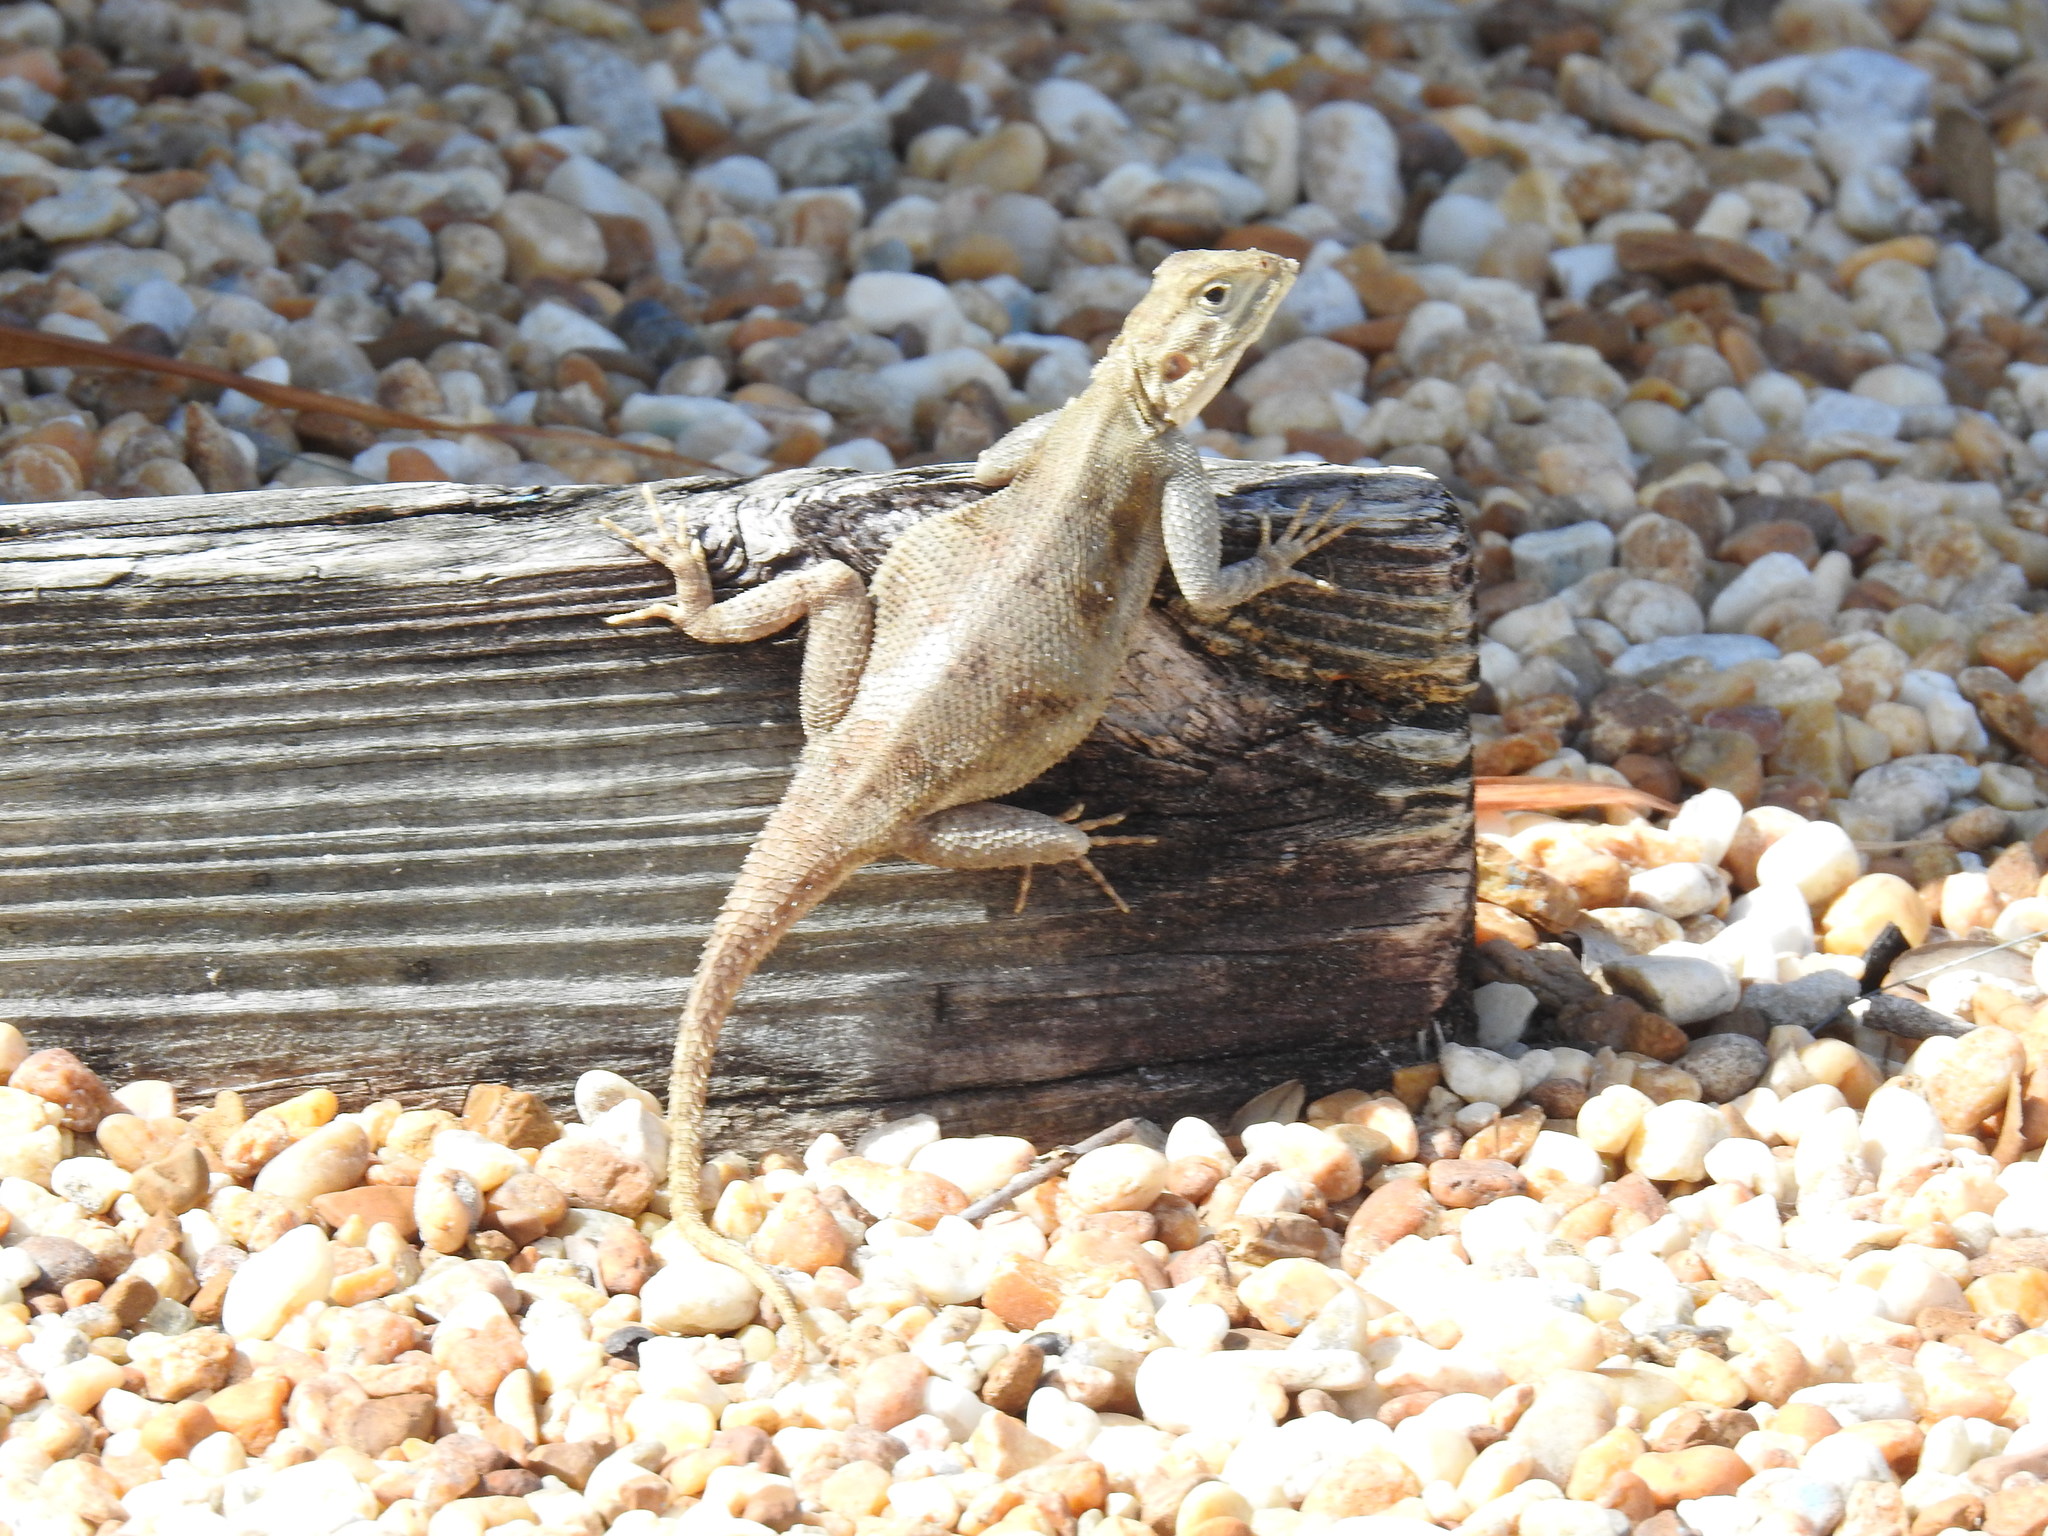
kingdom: Animalia
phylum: Chordata
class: Squamata
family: Agamidae
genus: Agama
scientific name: Agama picticauda
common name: Red-headed agama
